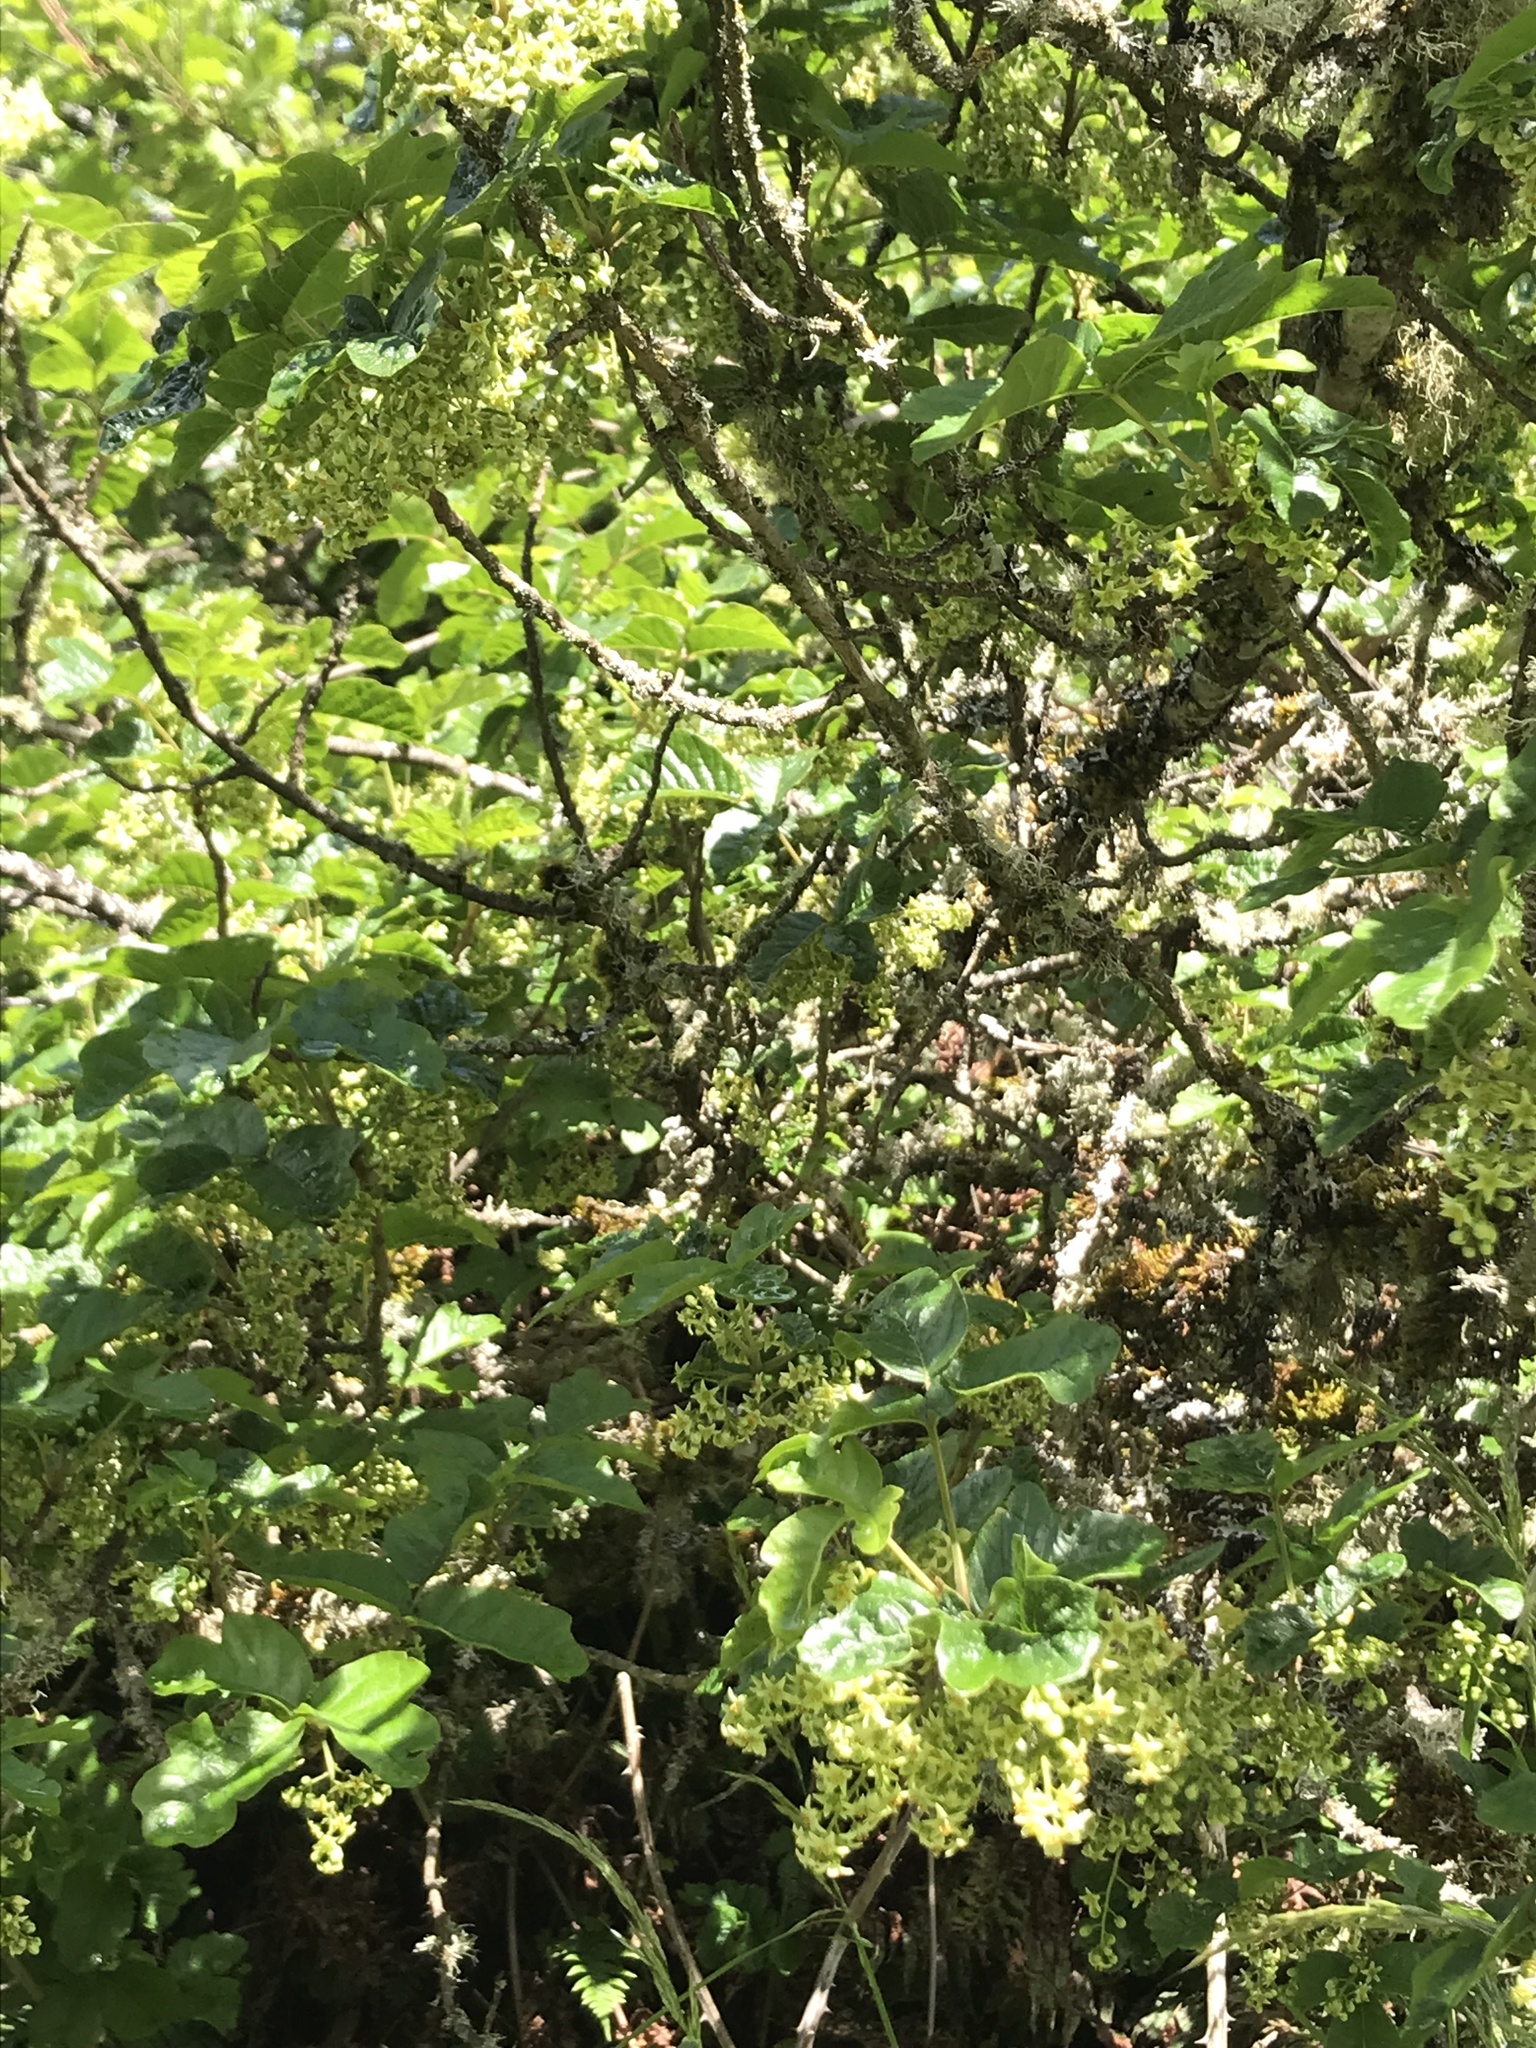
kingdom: Plantae
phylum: Tracheophyta
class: Magnoliopsida
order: Sapindales
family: Anacardiaceae
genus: Toxicodendron
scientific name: Toxicodendron diversilobum
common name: Pacific poison-oak
